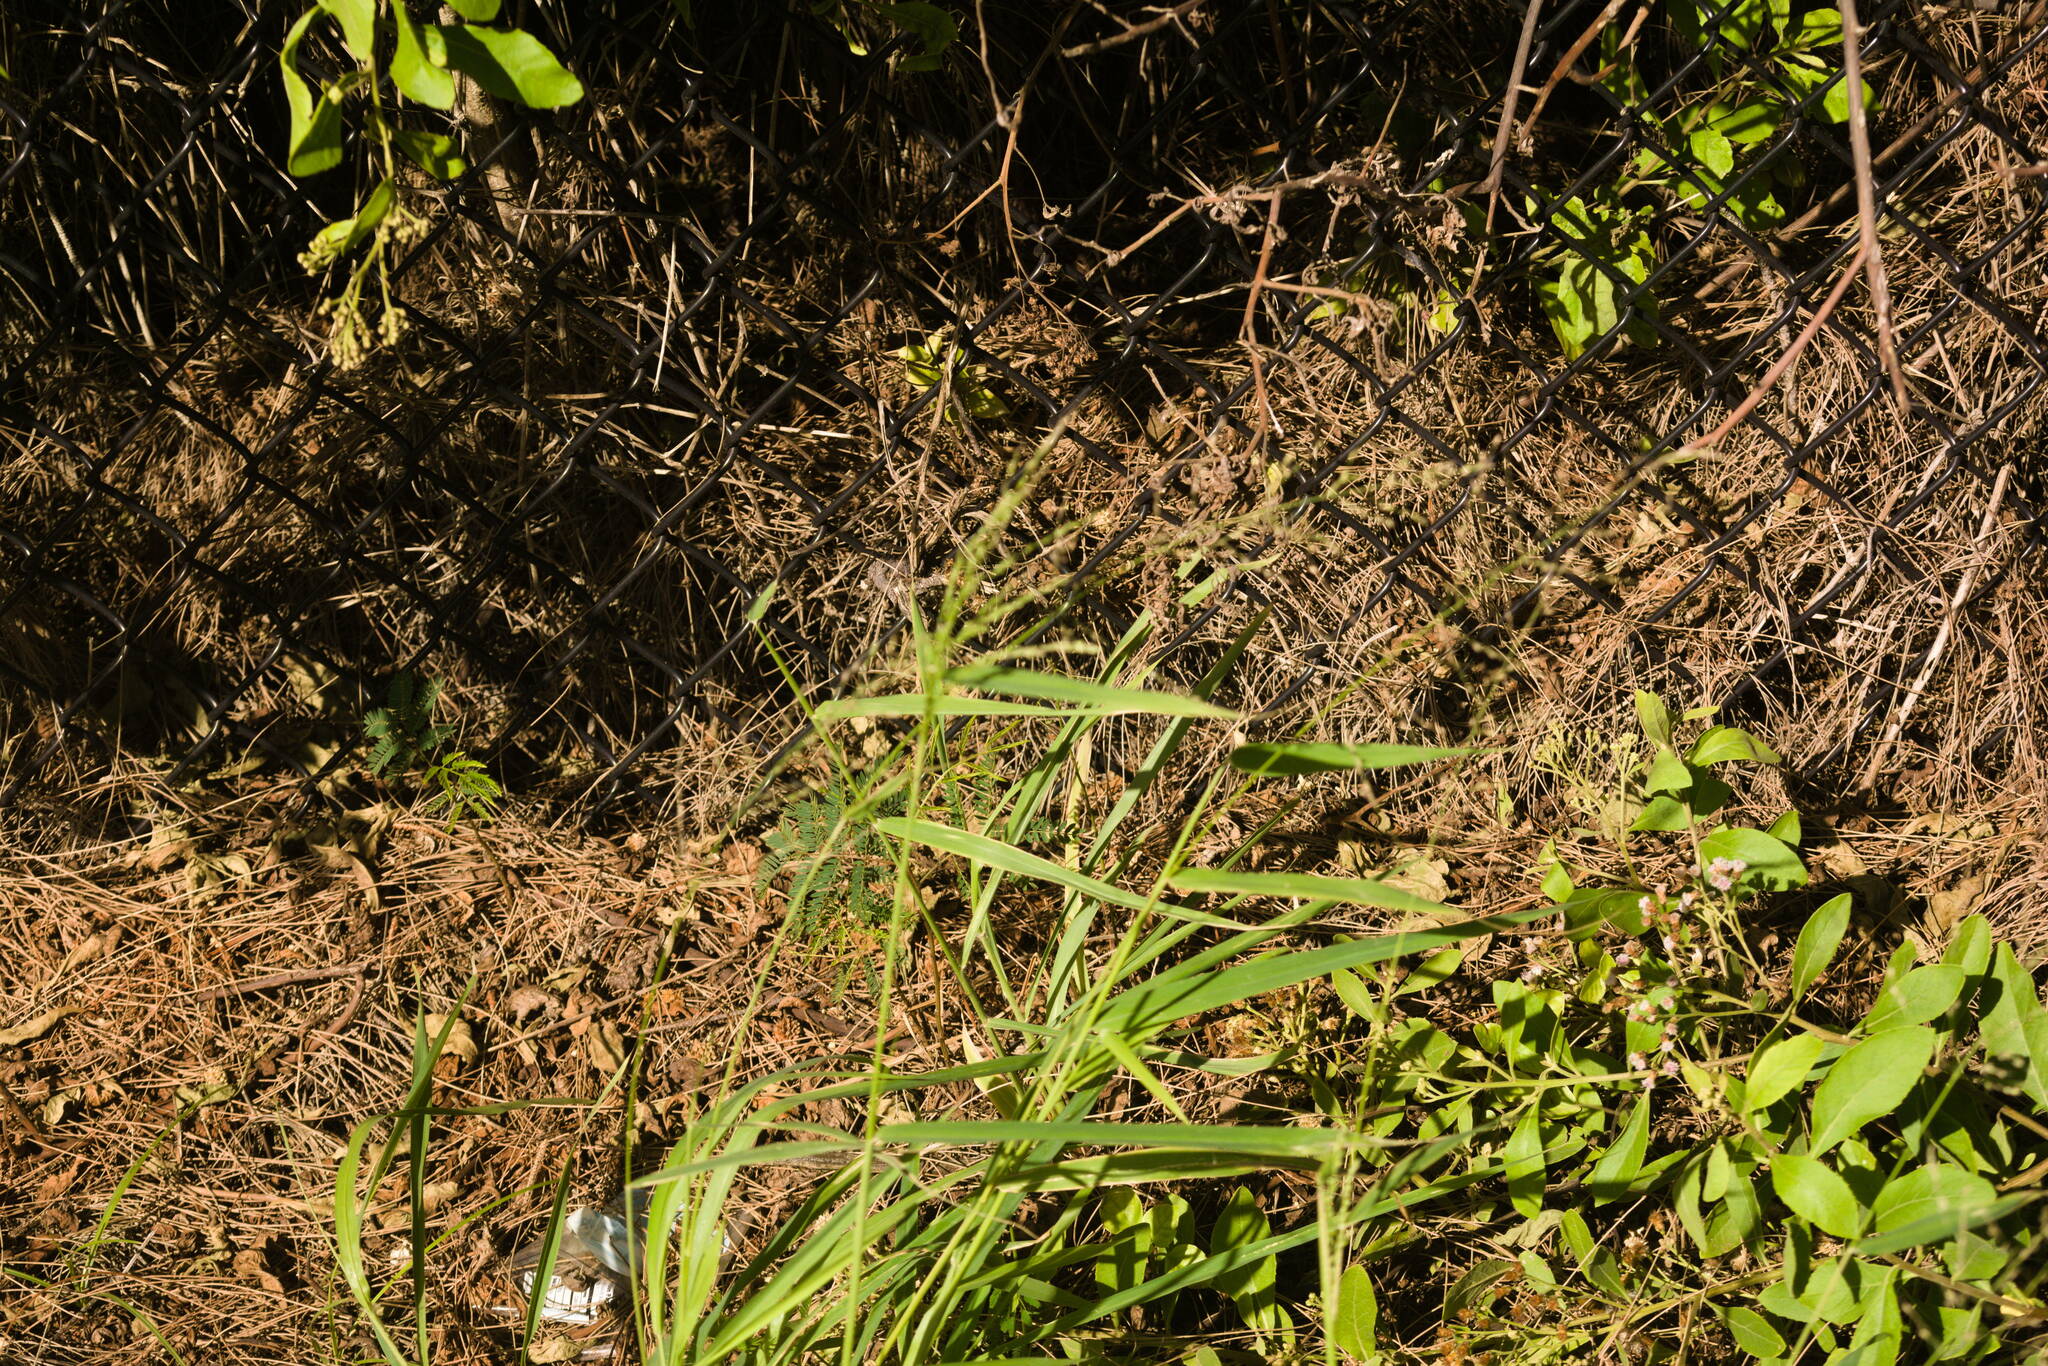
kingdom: Plantae
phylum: Tracheophyta
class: Liliopsida
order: Poales
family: Poaceae
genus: Megathyrsus
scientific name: Megathyrsus maximus
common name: Guineagrass
